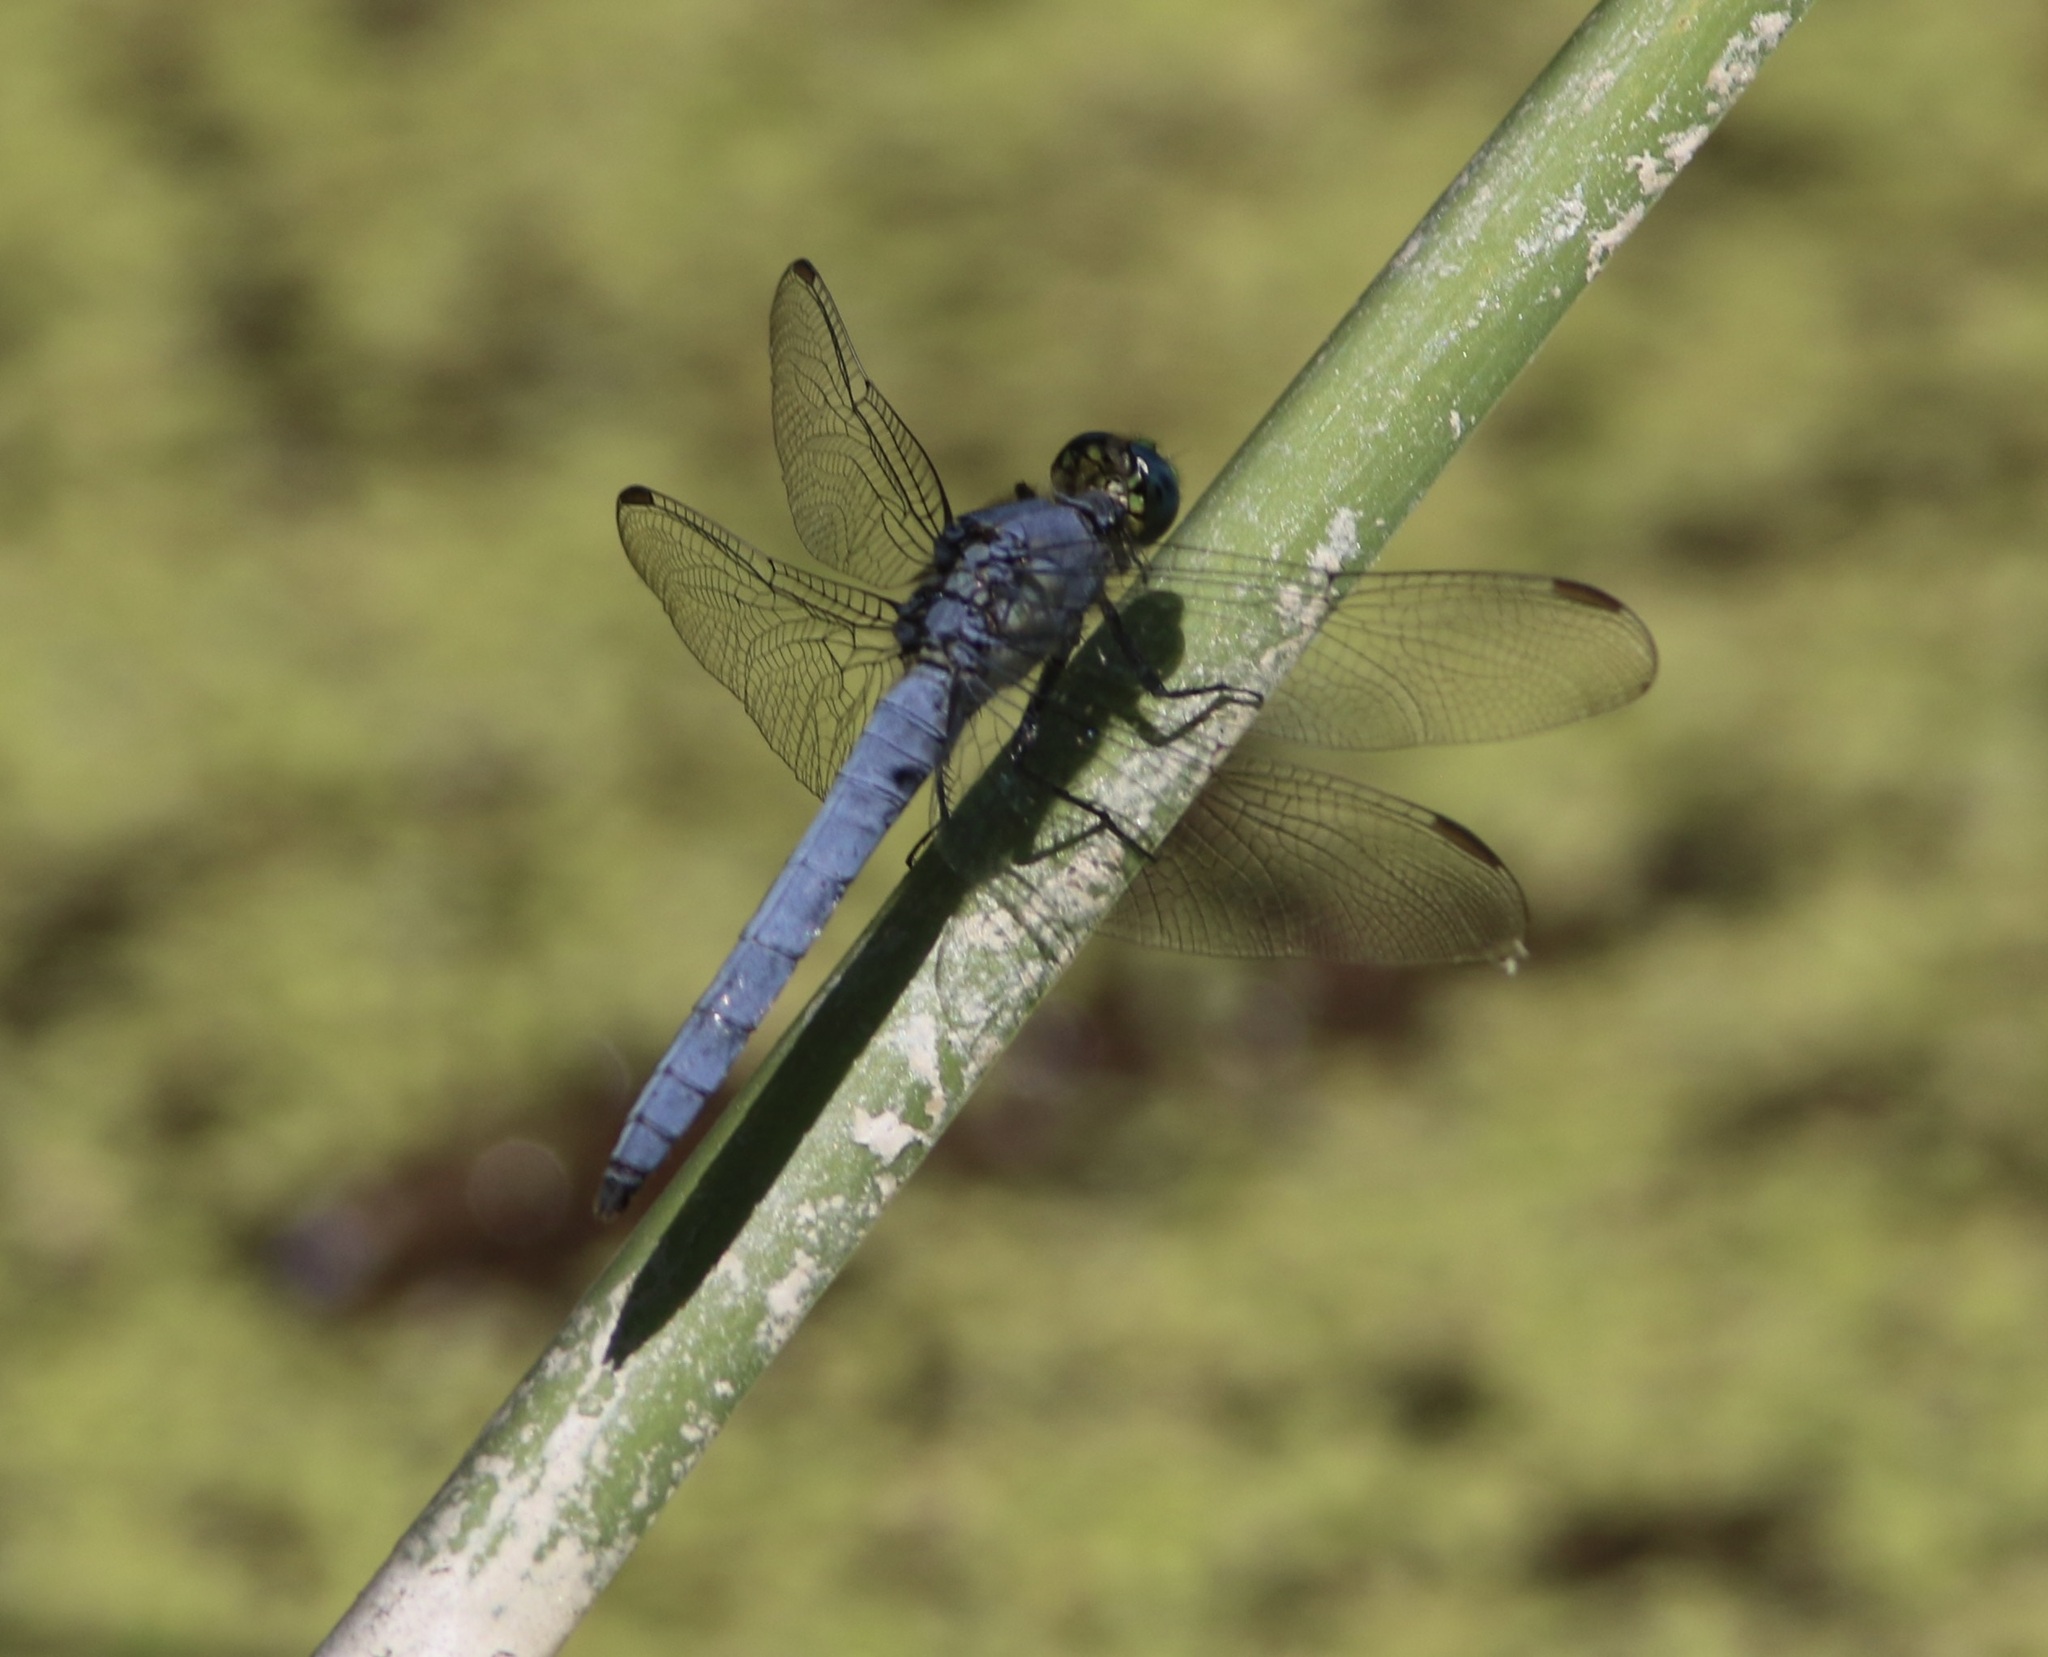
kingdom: Animalia
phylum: Arthropoda
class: Insecta
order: Odonata
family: Libellulidae
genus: Erythemis
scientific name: Erythemis collocata
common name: Western pondhawk
